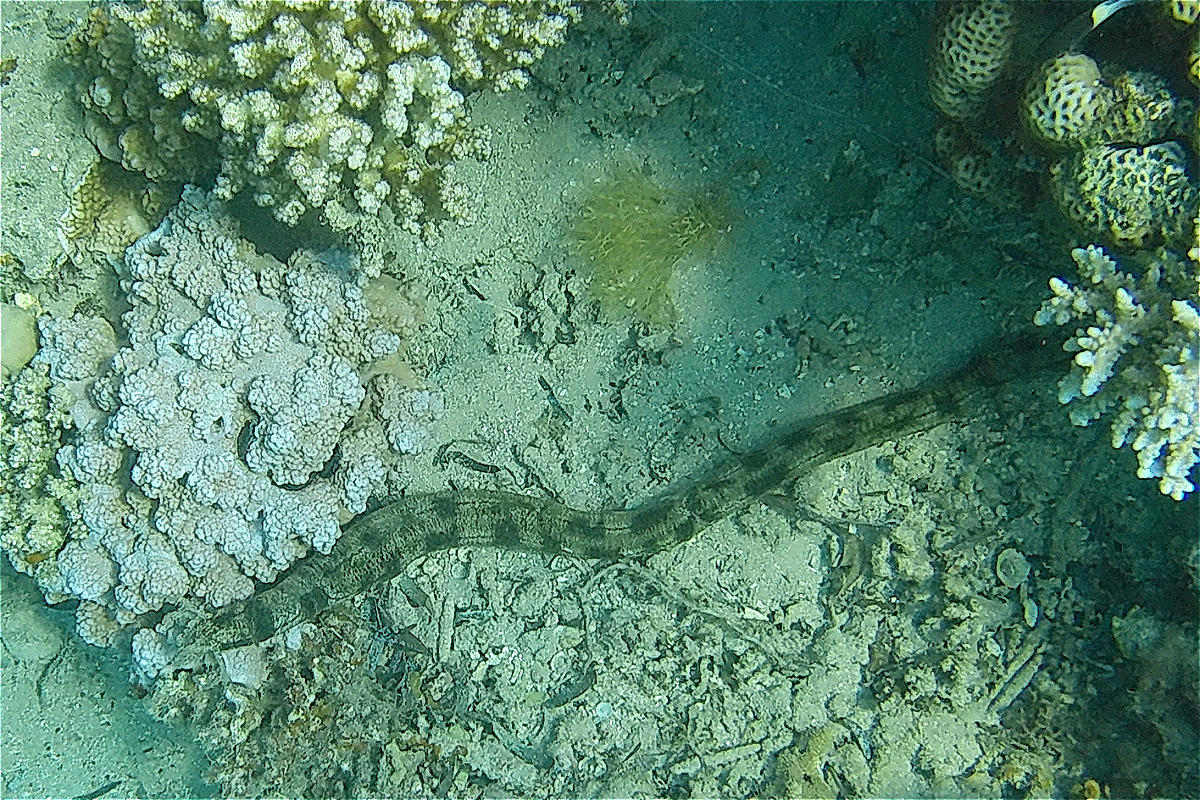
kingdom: Animalia
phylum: Echinodermata
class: Holothuroidea
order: Apodida
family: Synaptidae
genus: Synapta
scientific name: Synapta maculata
